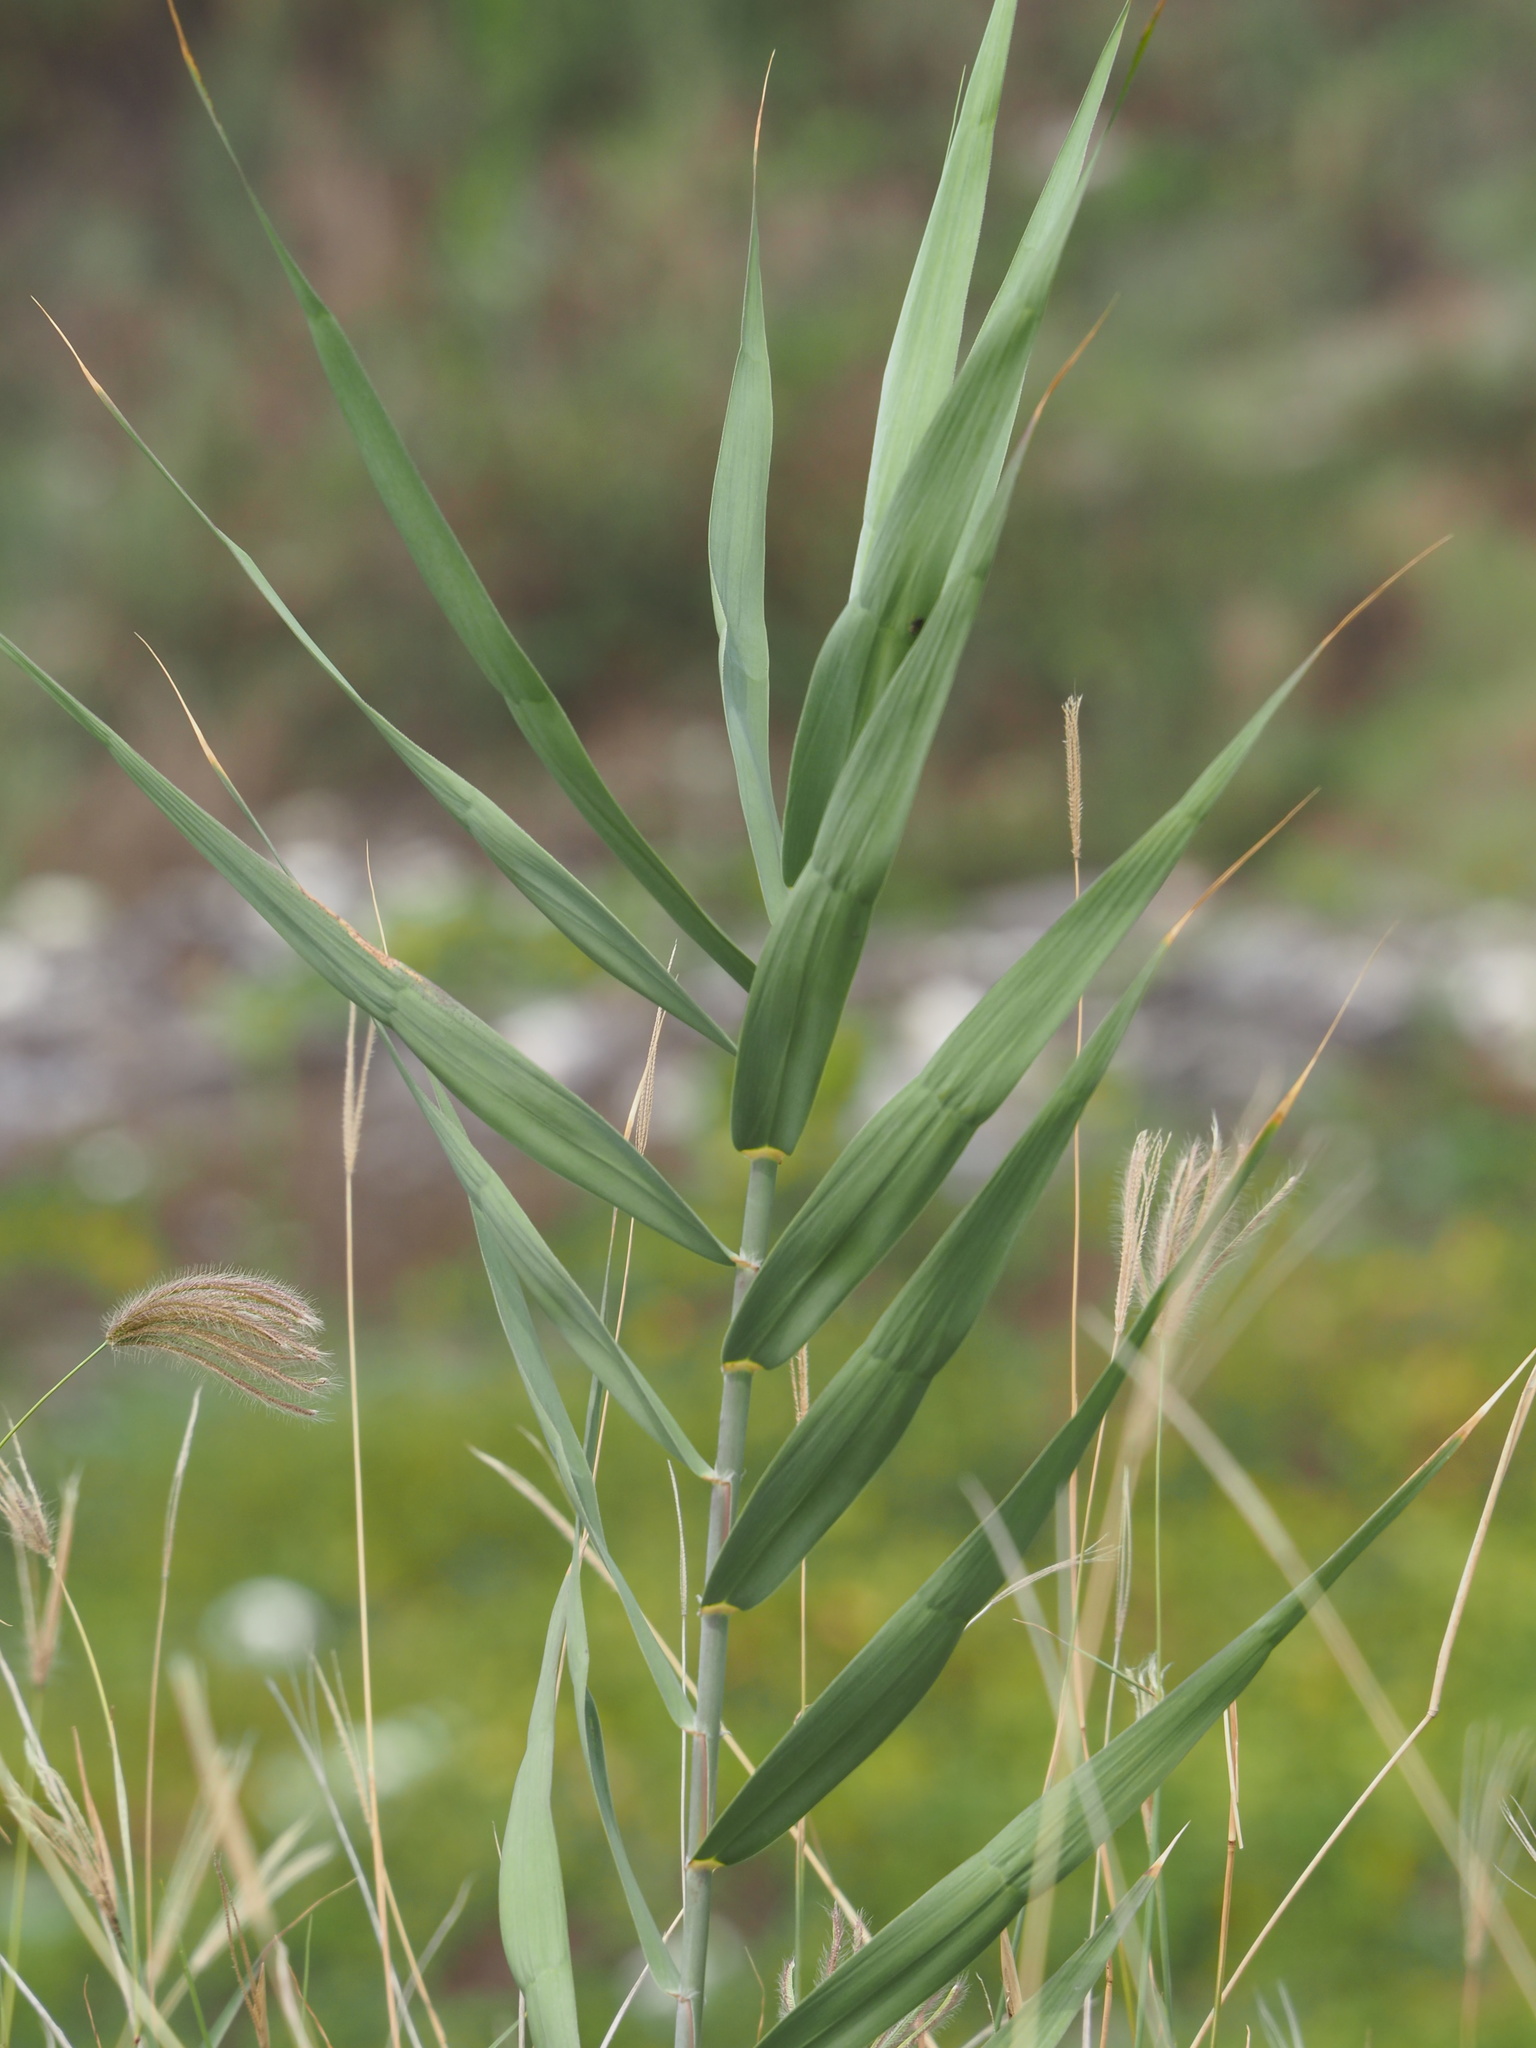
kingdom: Plantae
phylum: Tracheophyta
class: Liliopsida
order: Poales
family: Poaceae
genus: Phragmites
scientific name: Phragmites australis
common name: Common reed
